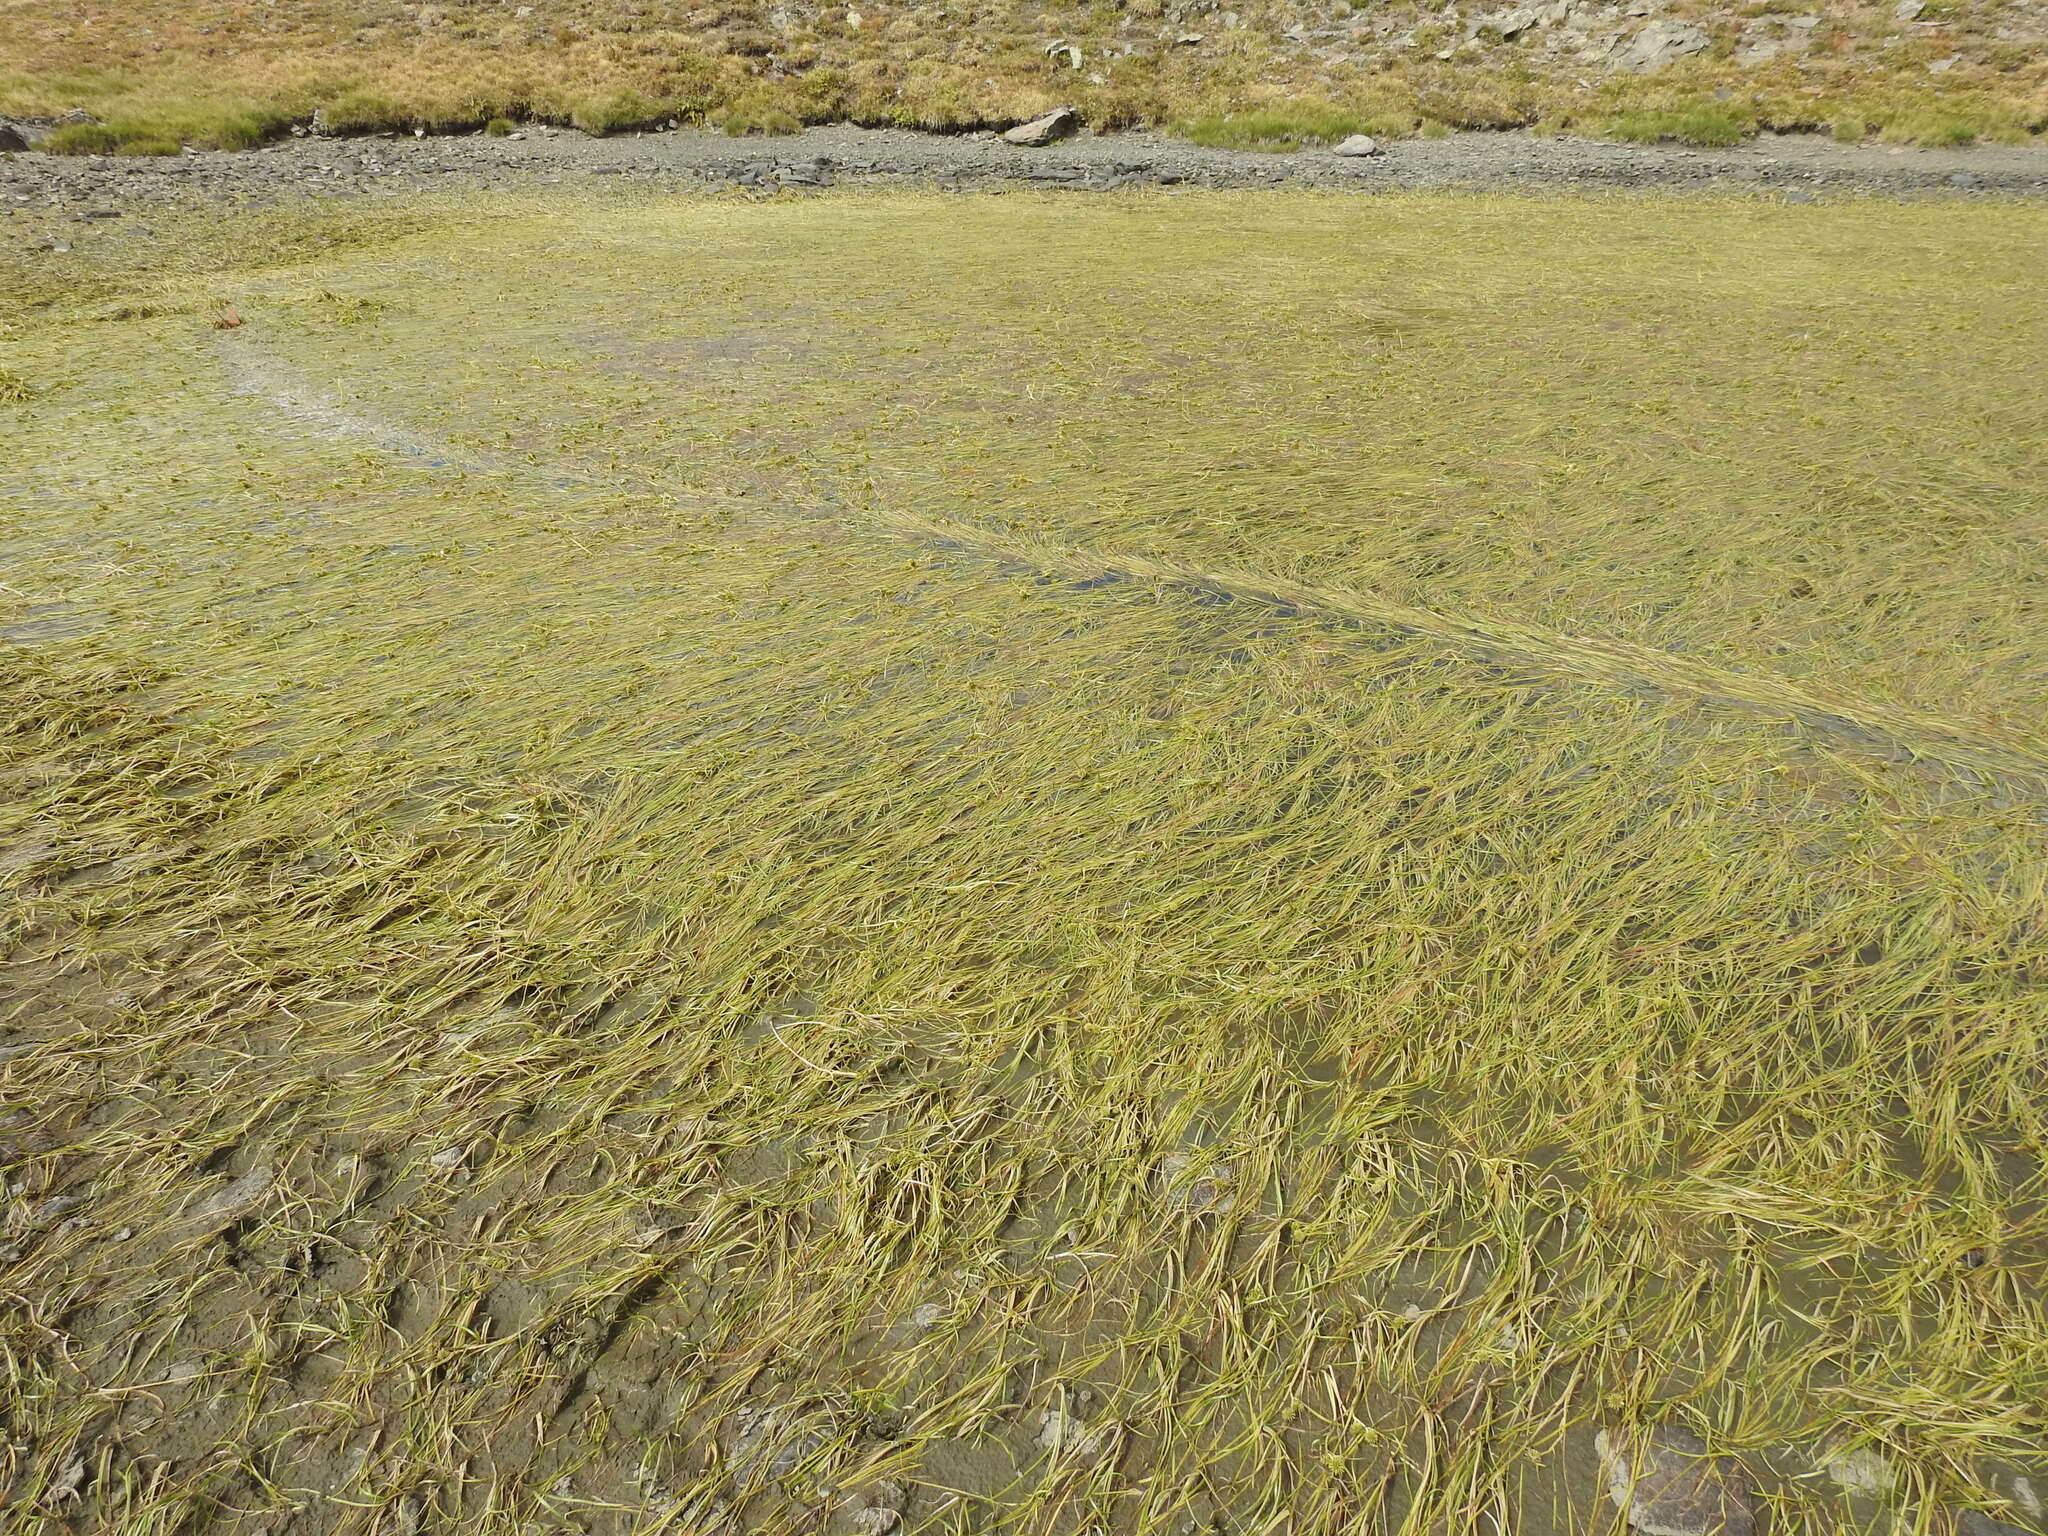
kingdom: Plantae
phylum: Tracheophyta
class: Liliopsida
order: Poales
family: Typhaceae
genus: Sparganium
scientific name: Sparganium angustifolium
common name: Floating bur-reed
